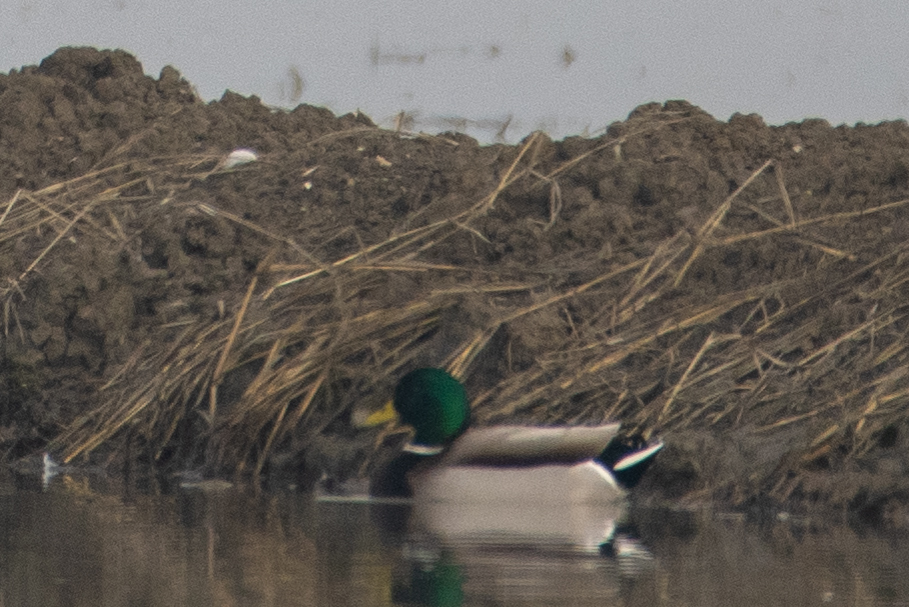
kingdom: Animalia
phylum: Chordata
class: Aves
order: Anseriformes
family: Anatidae
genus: Anas
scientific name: Anas platyrhynchos
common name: Mallard
